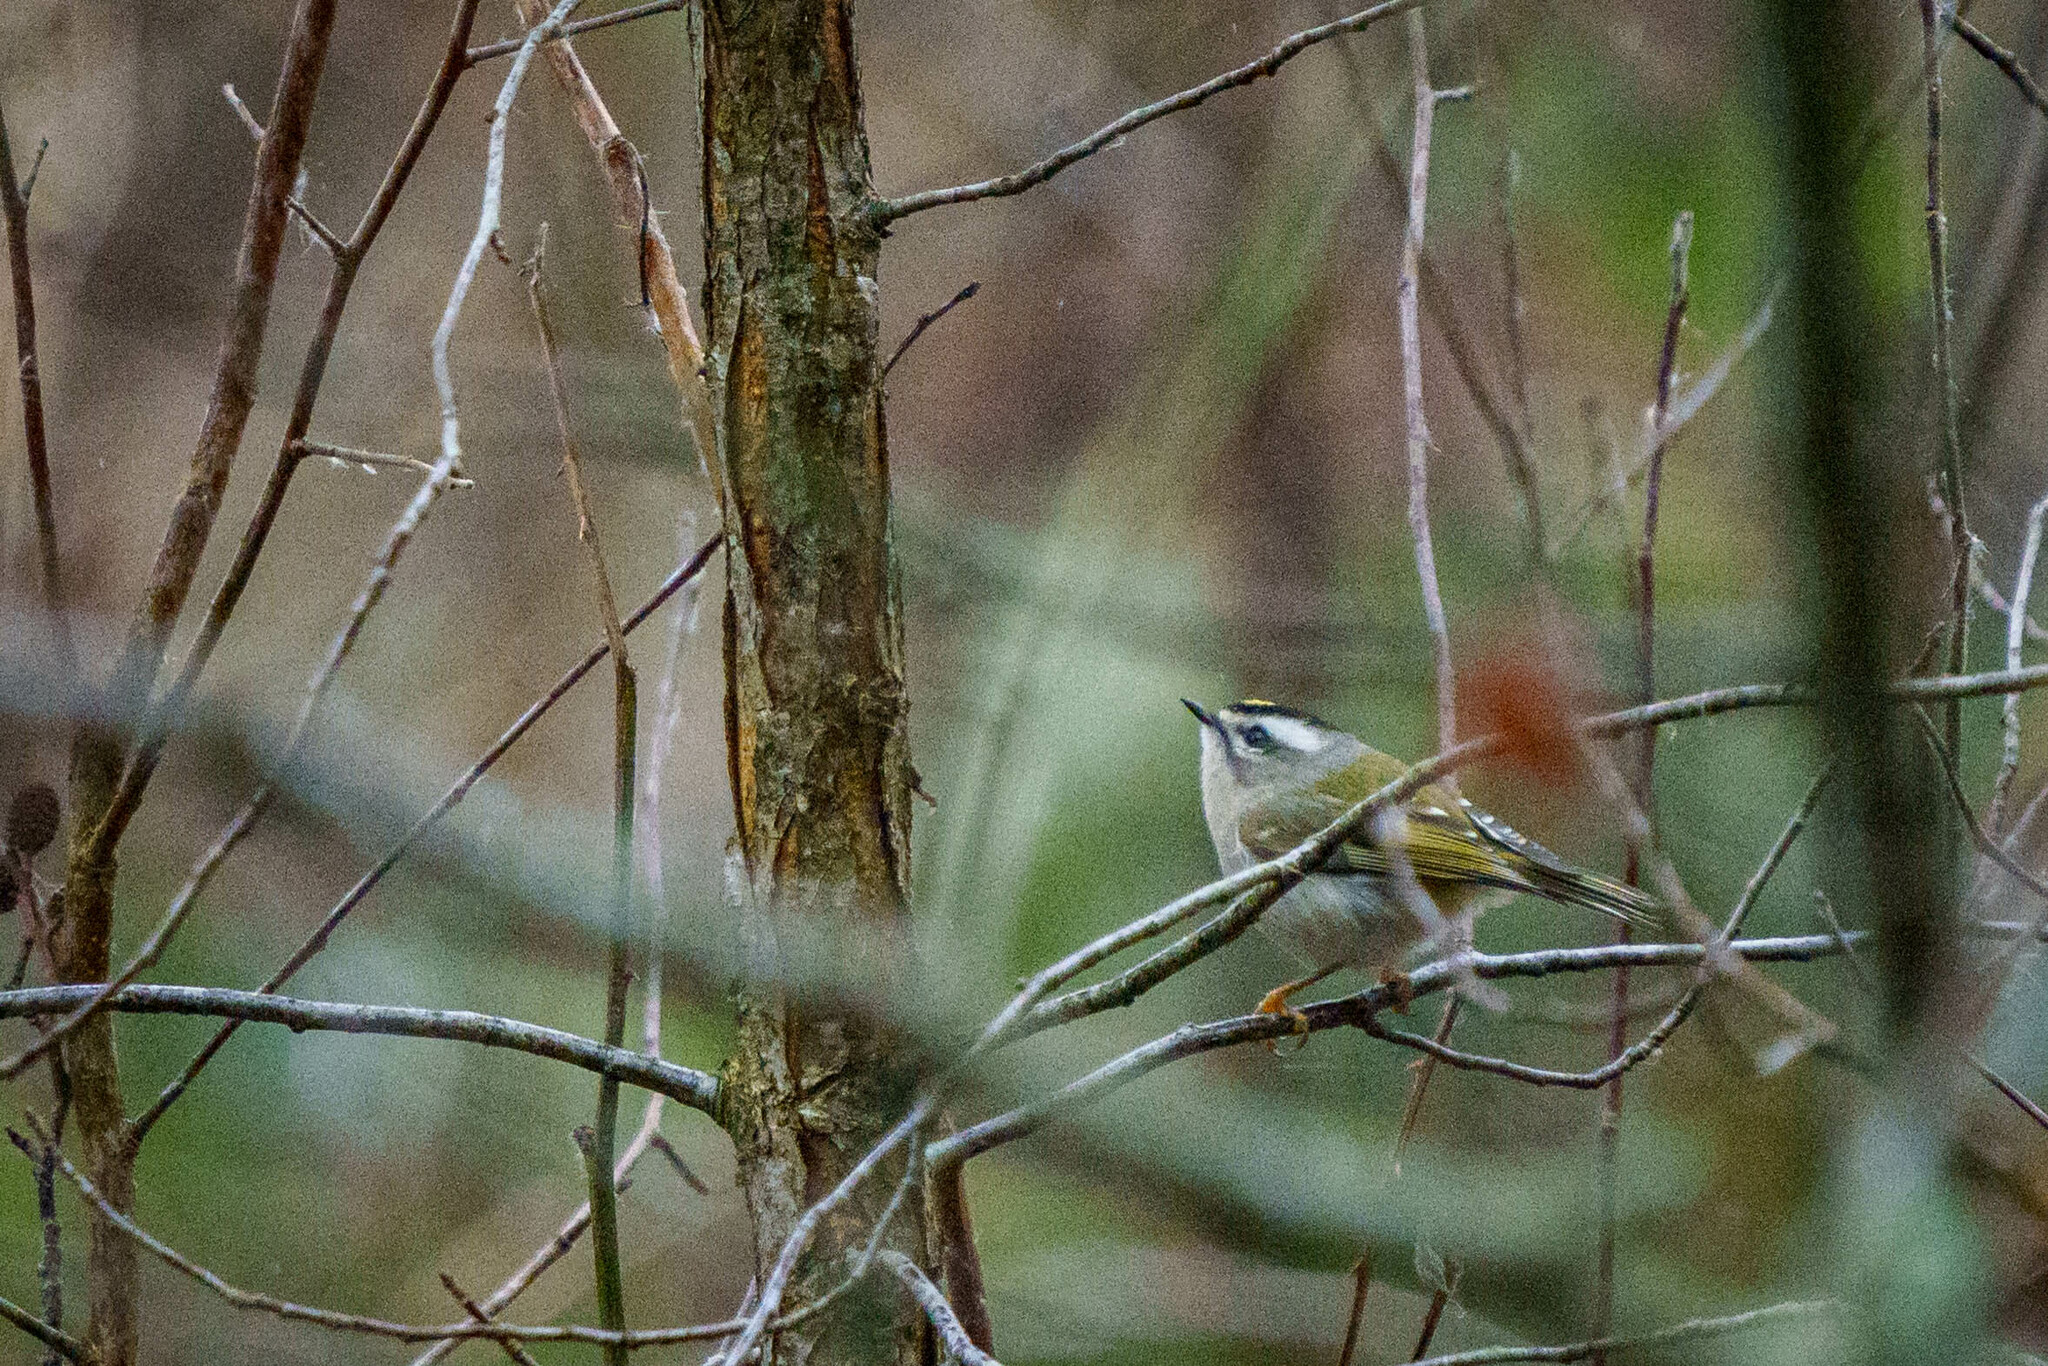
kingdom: Animalia
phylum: Chordata
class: Aves
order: Passeriformes
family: Regulidae
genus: Regulus
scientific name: Regulus satrapa
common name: Golden-crowned kinglet
